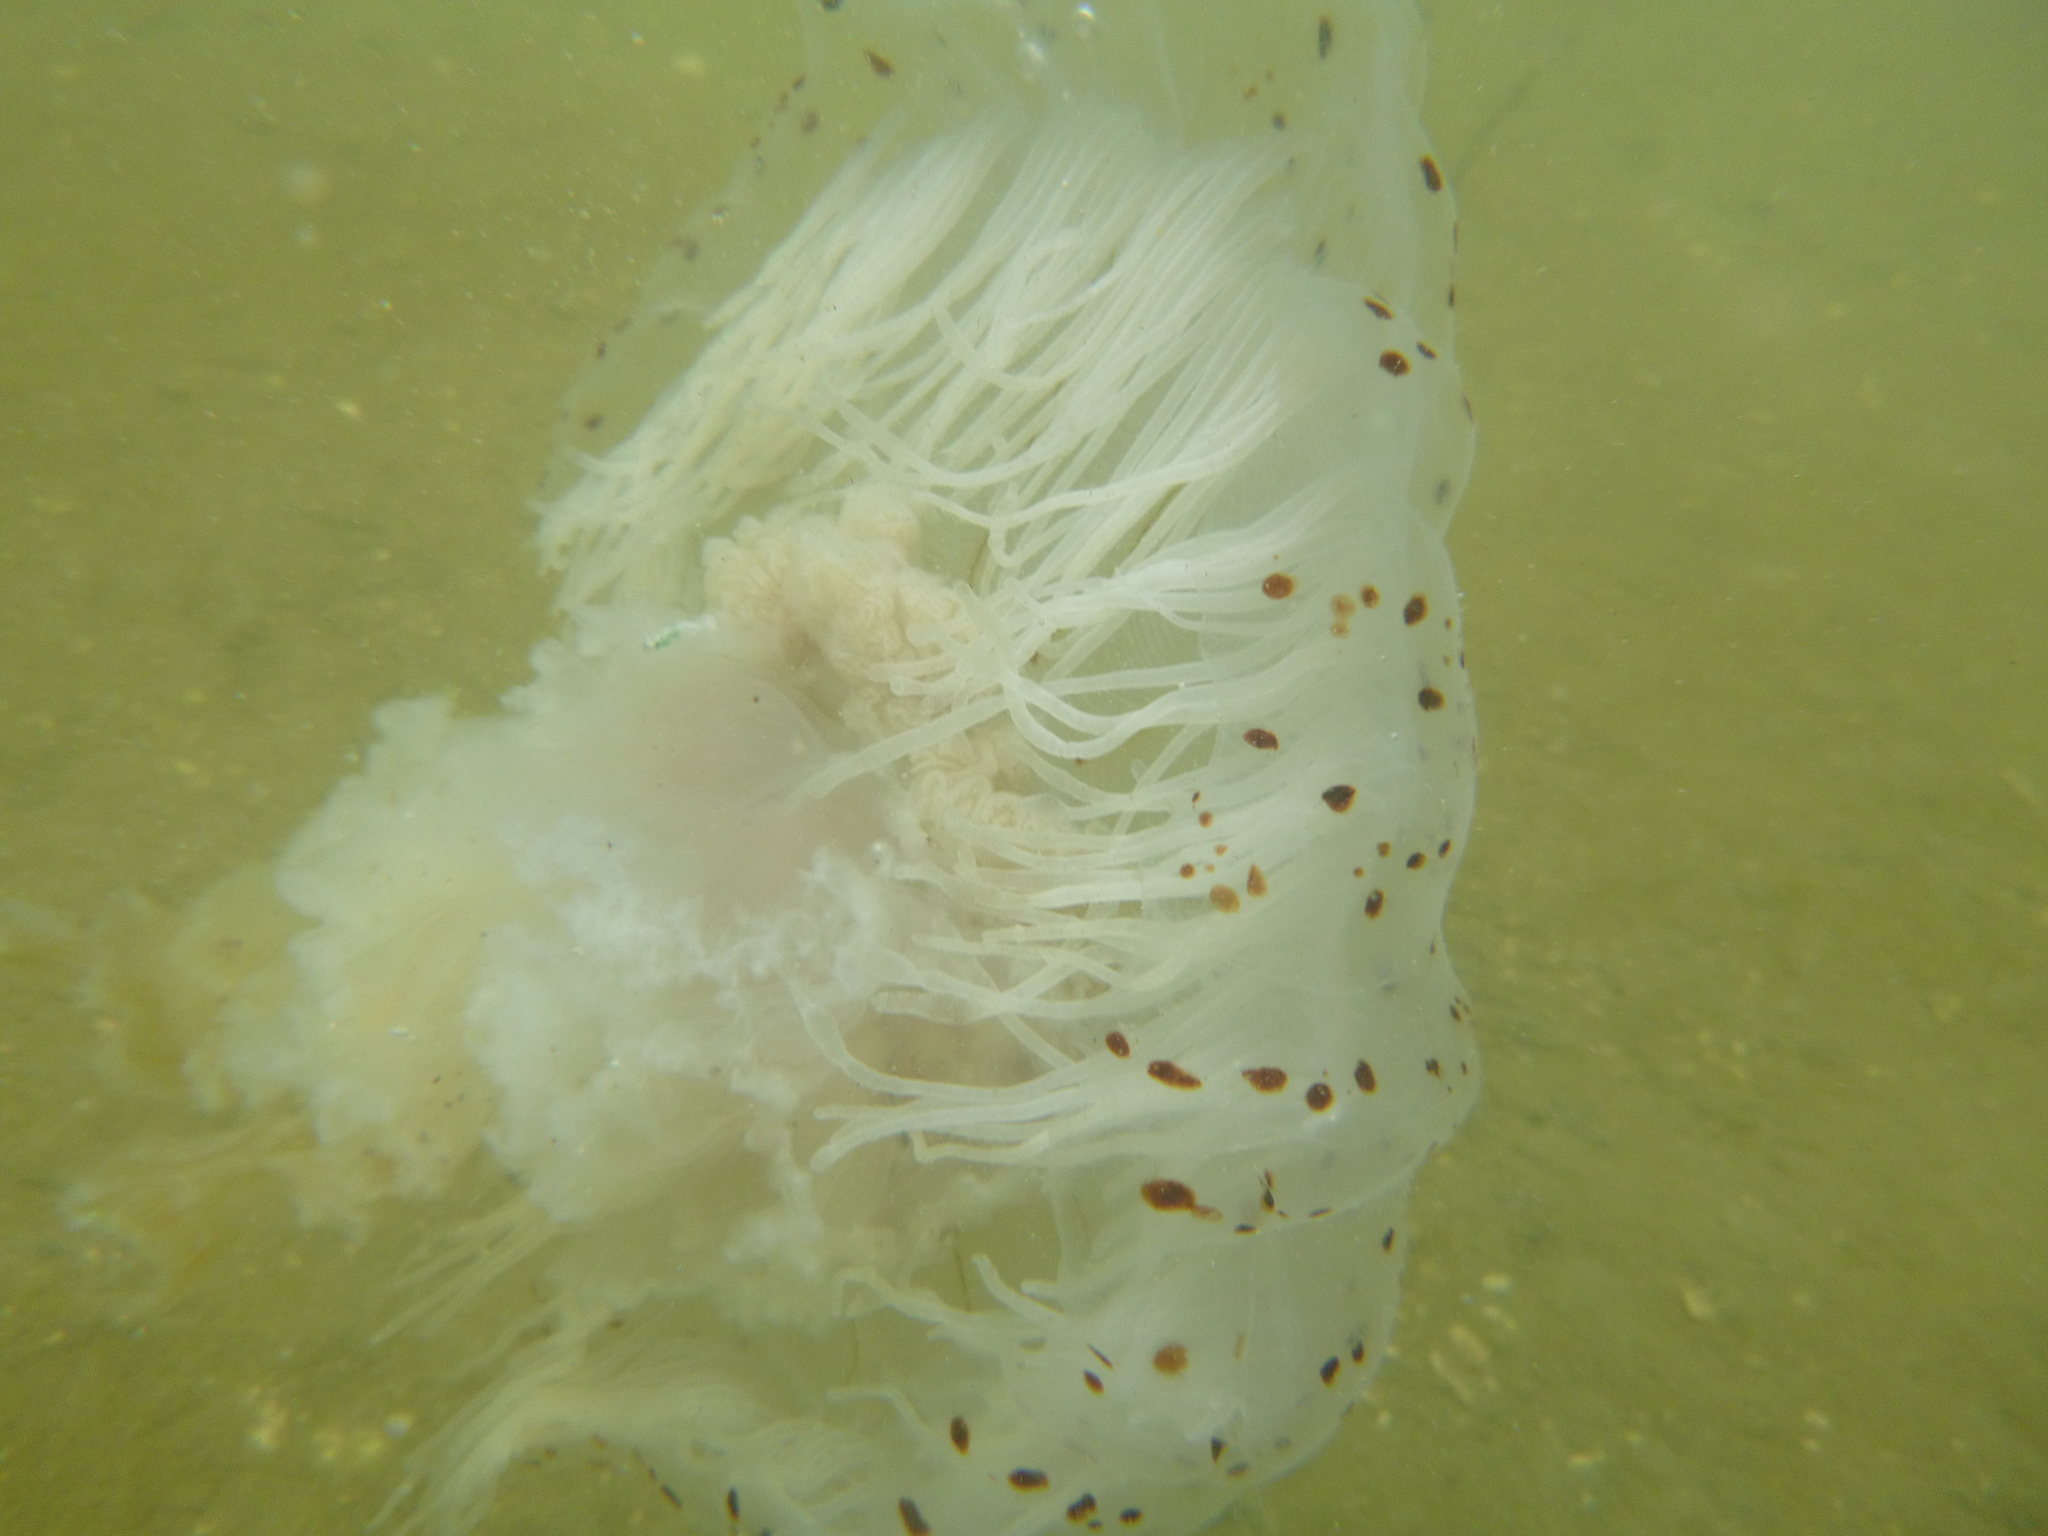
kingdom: Animalia
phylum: Cnidaria
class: Scyphozoa
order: Semaeostomeae
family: Cyaneidae
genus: Desmonema
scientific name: Desmonema gaudichaudi
